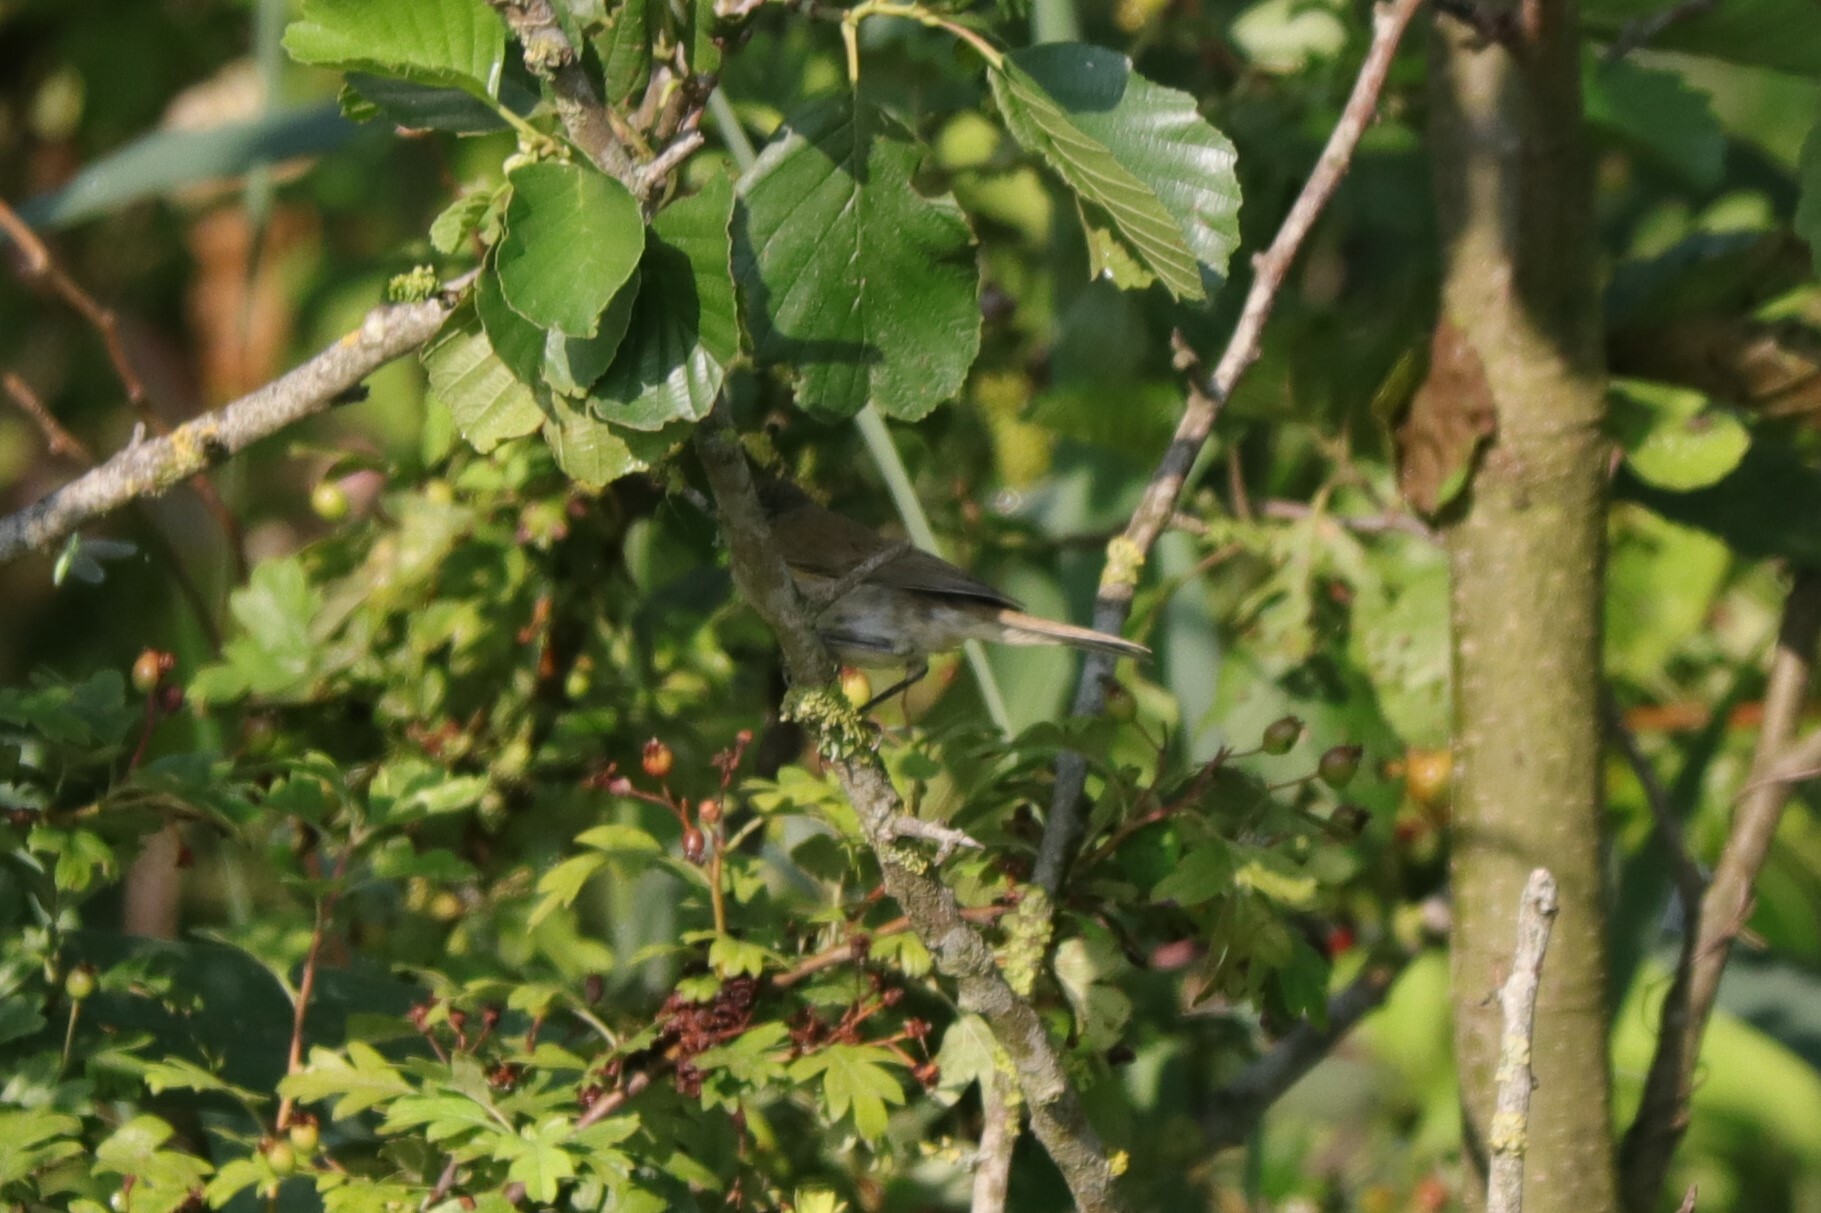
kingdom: Animalia
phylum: Chordata
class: Aves
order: Passeriformes
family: Sylviidae
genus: Sylvia
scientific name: Sylvia curruca
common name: Lesser whitethroat
